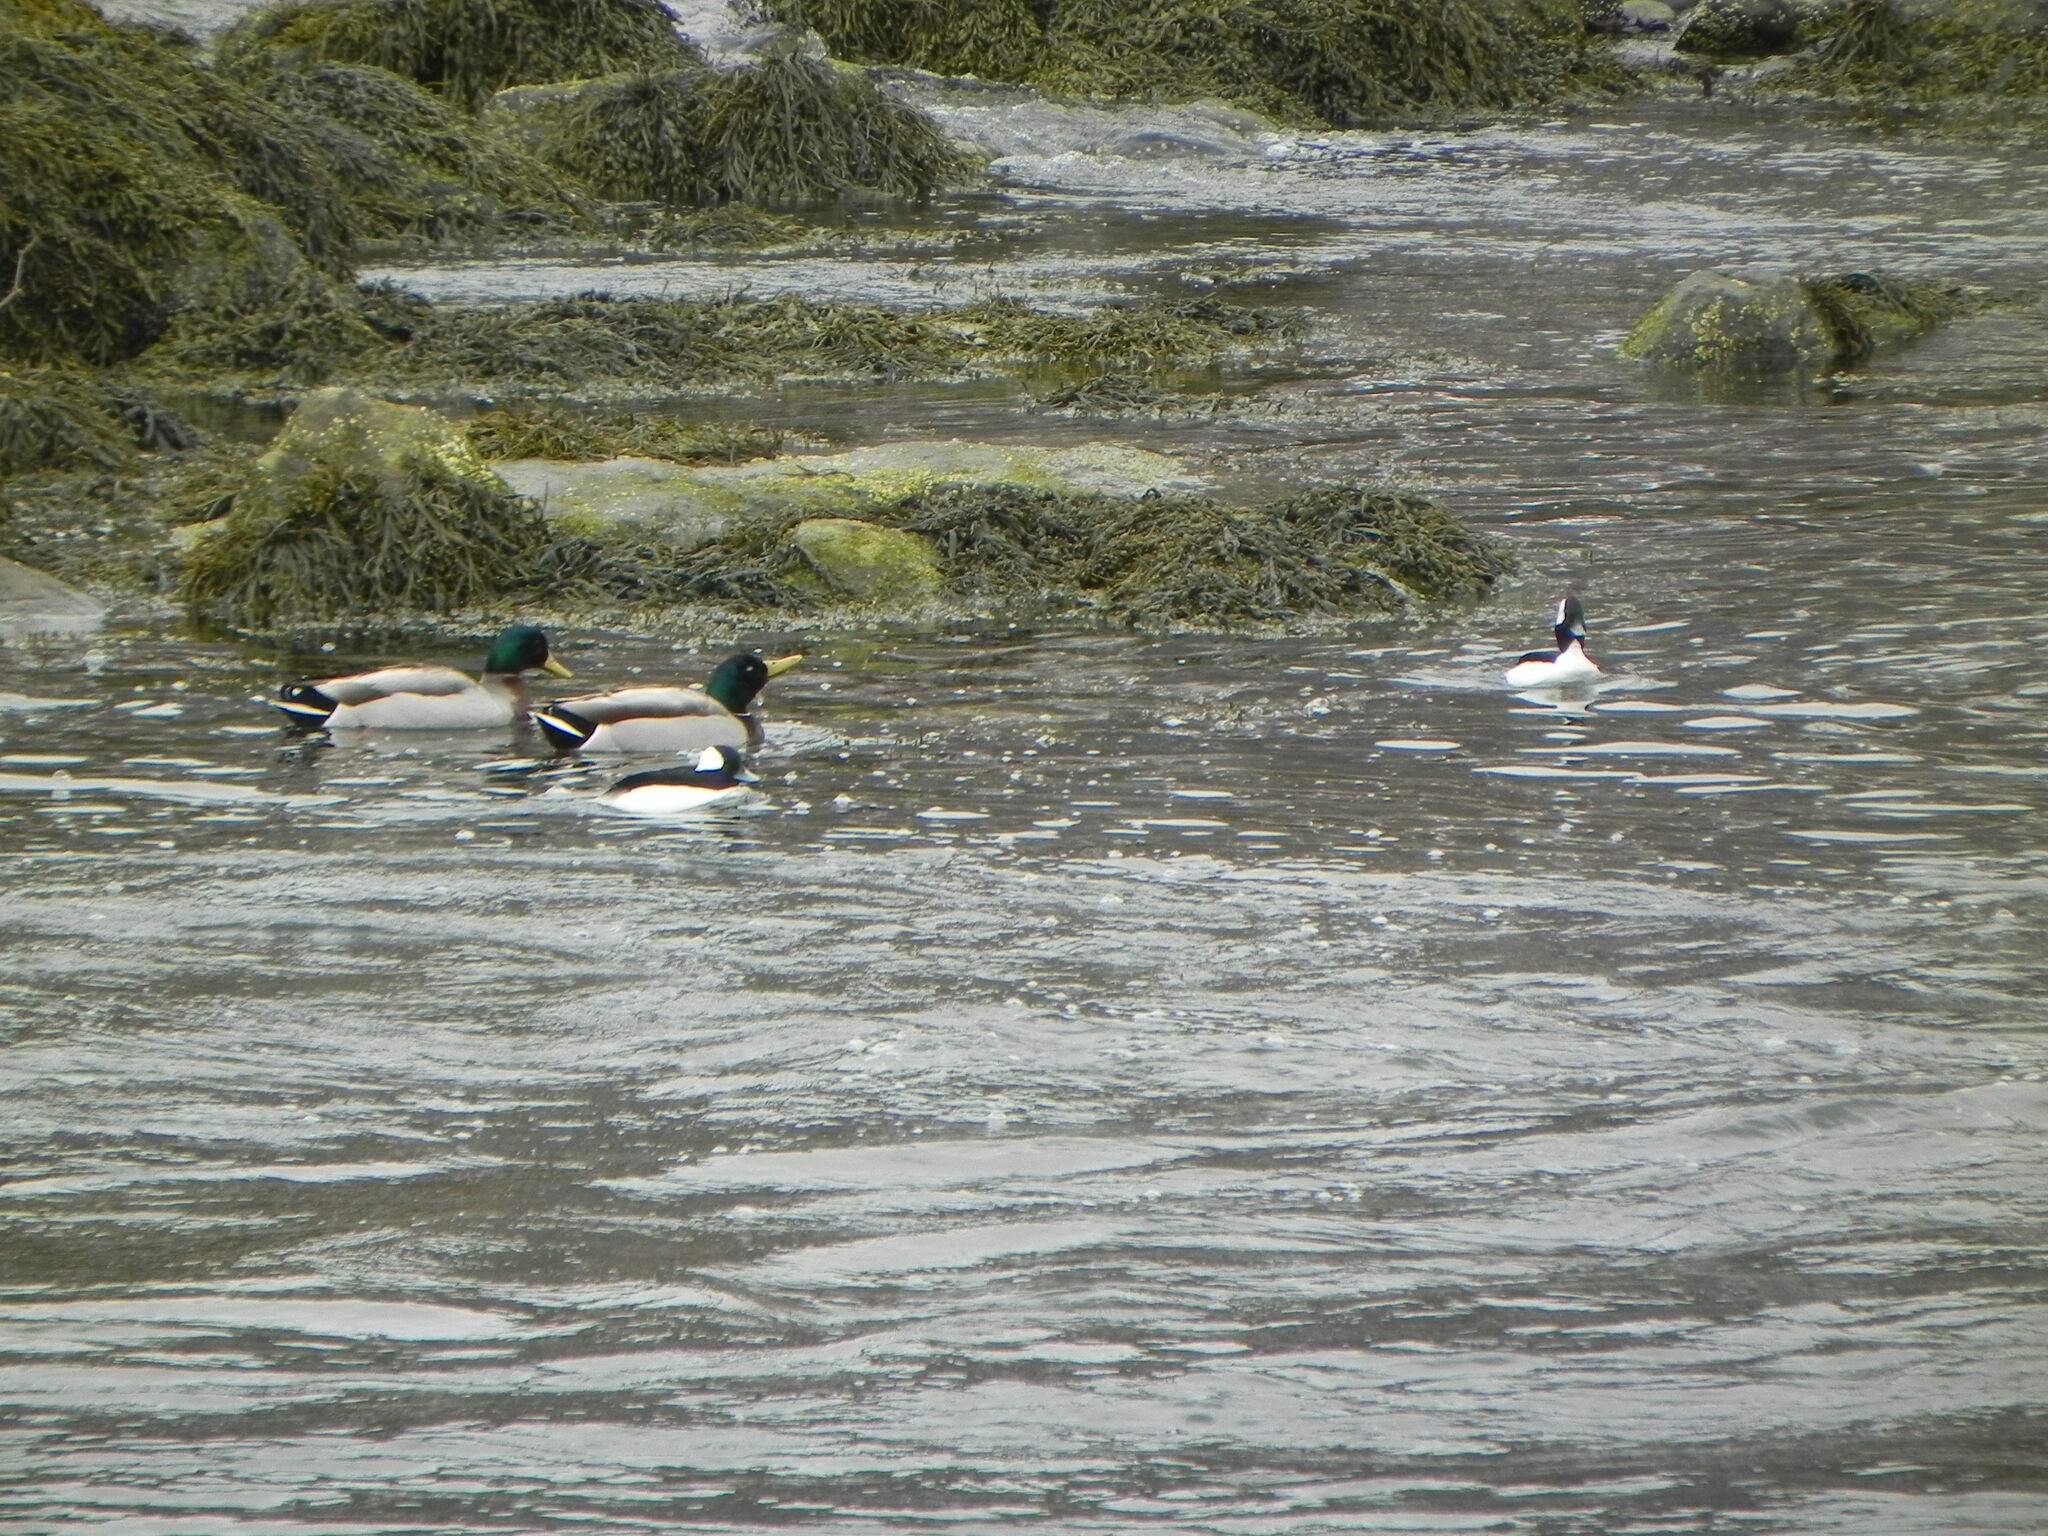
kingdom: Animalia
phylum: Chordata
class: Aves
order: Anseriformes
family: Anatidae
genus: Anas
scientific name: Anas platyrhynchos
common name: Mallard
